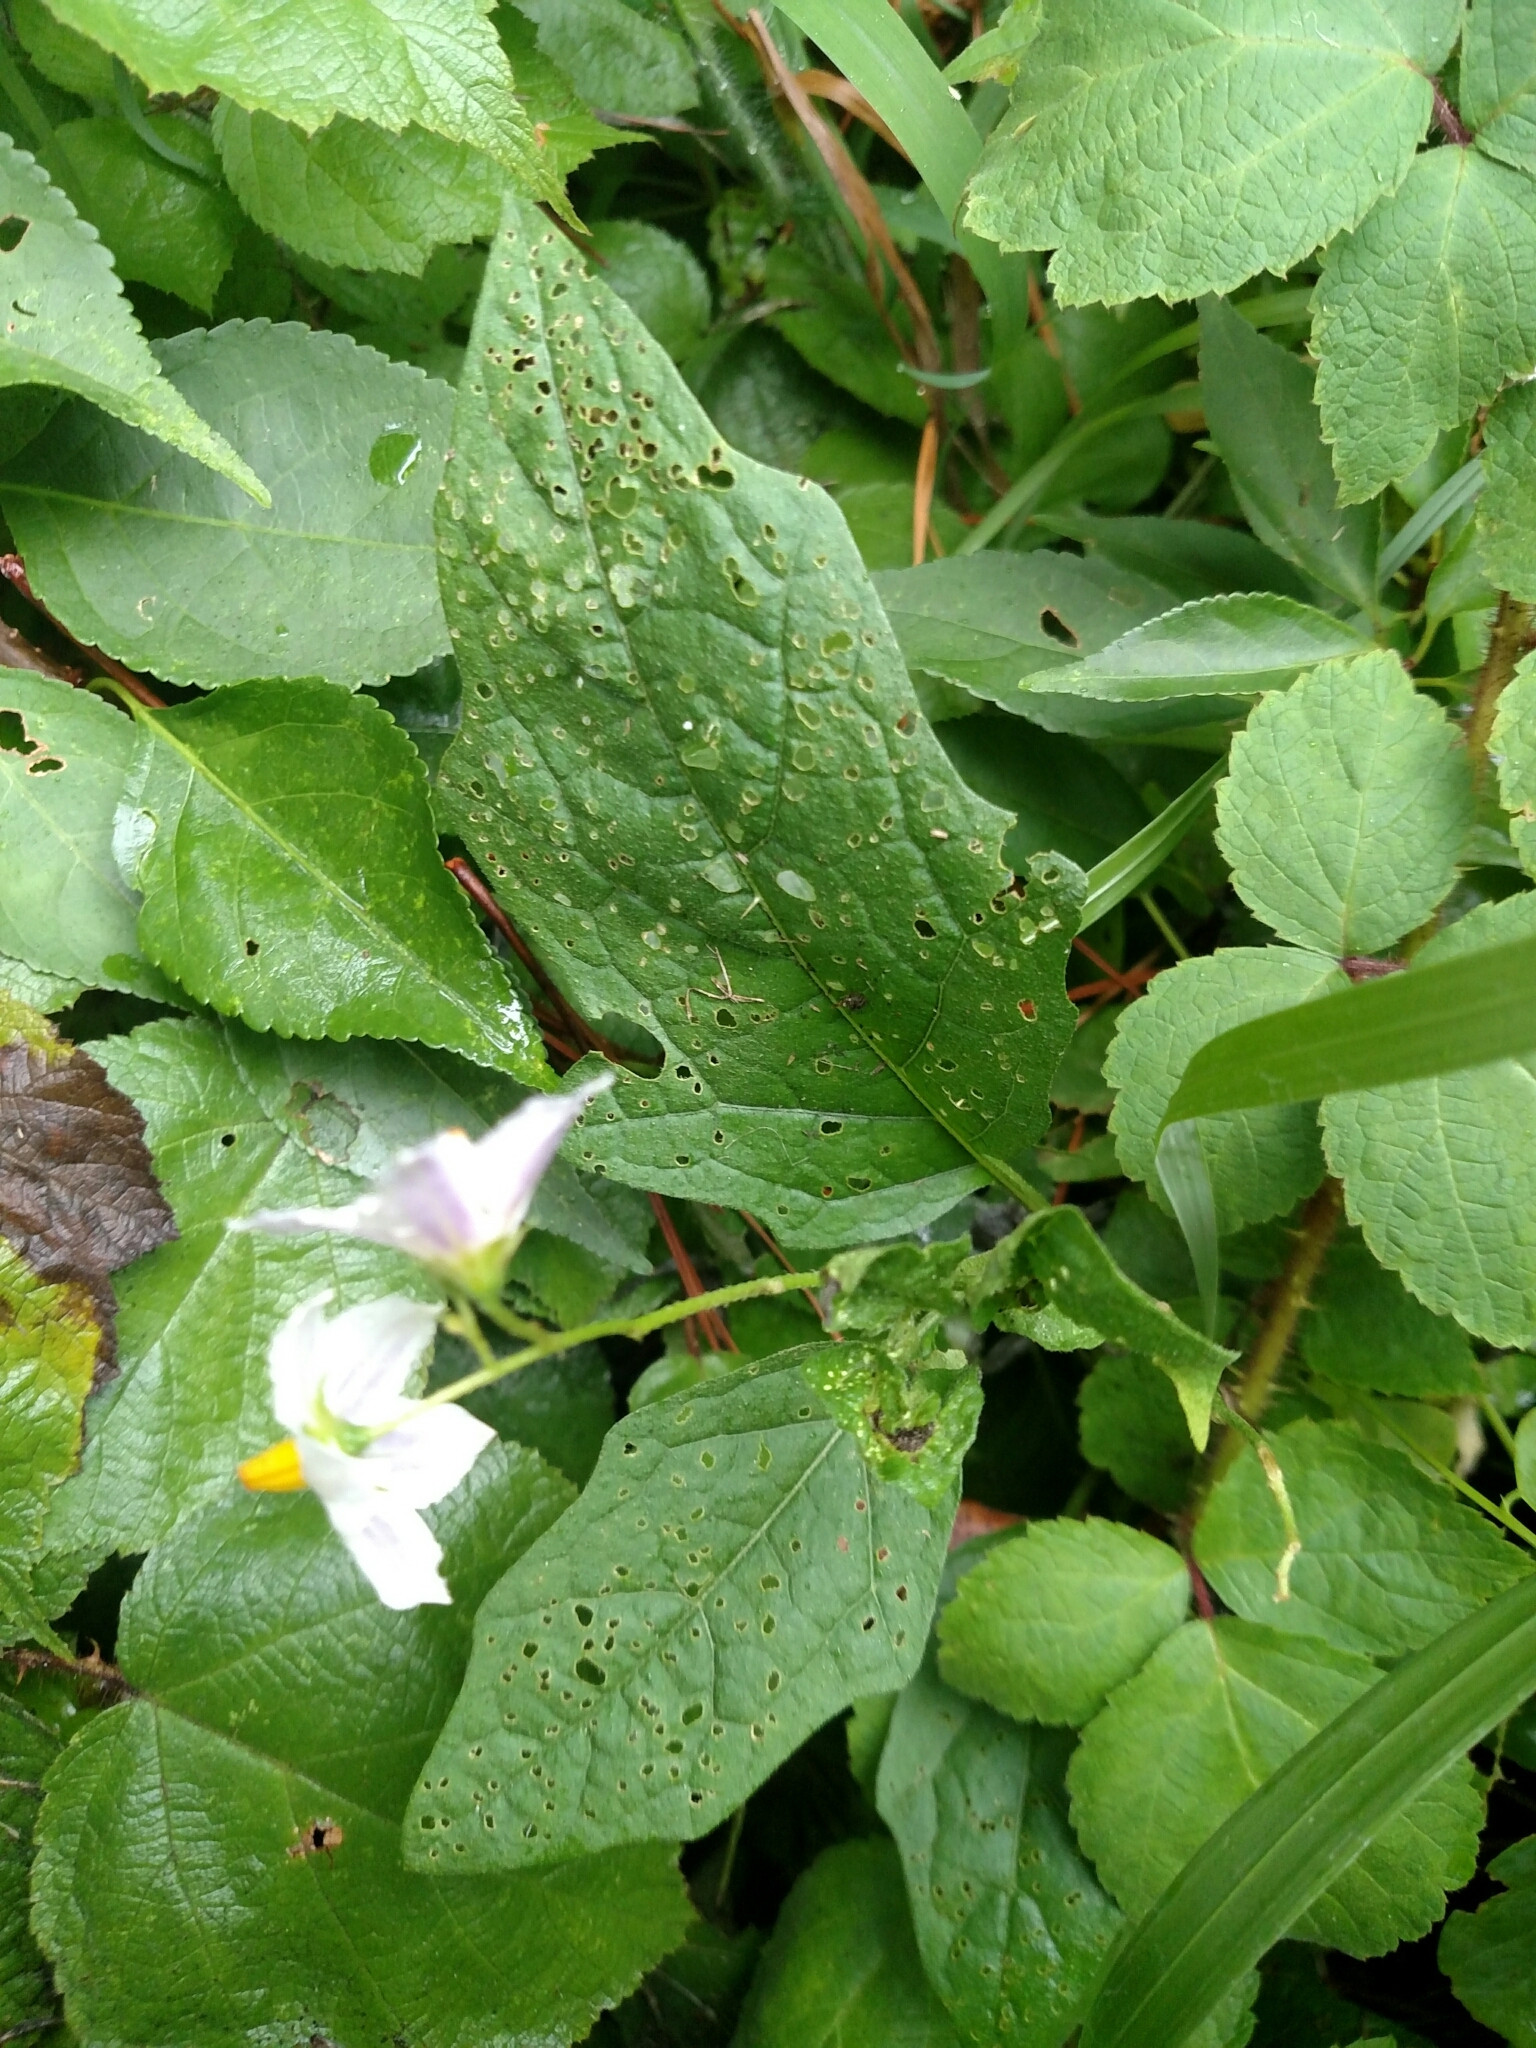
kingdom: Plantae
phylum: Tracheophyta
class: Magnoliopsida
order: Solanales
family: Solanaceae
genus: Solanum
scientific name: Solanum carolinense
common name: Horse-nettle
